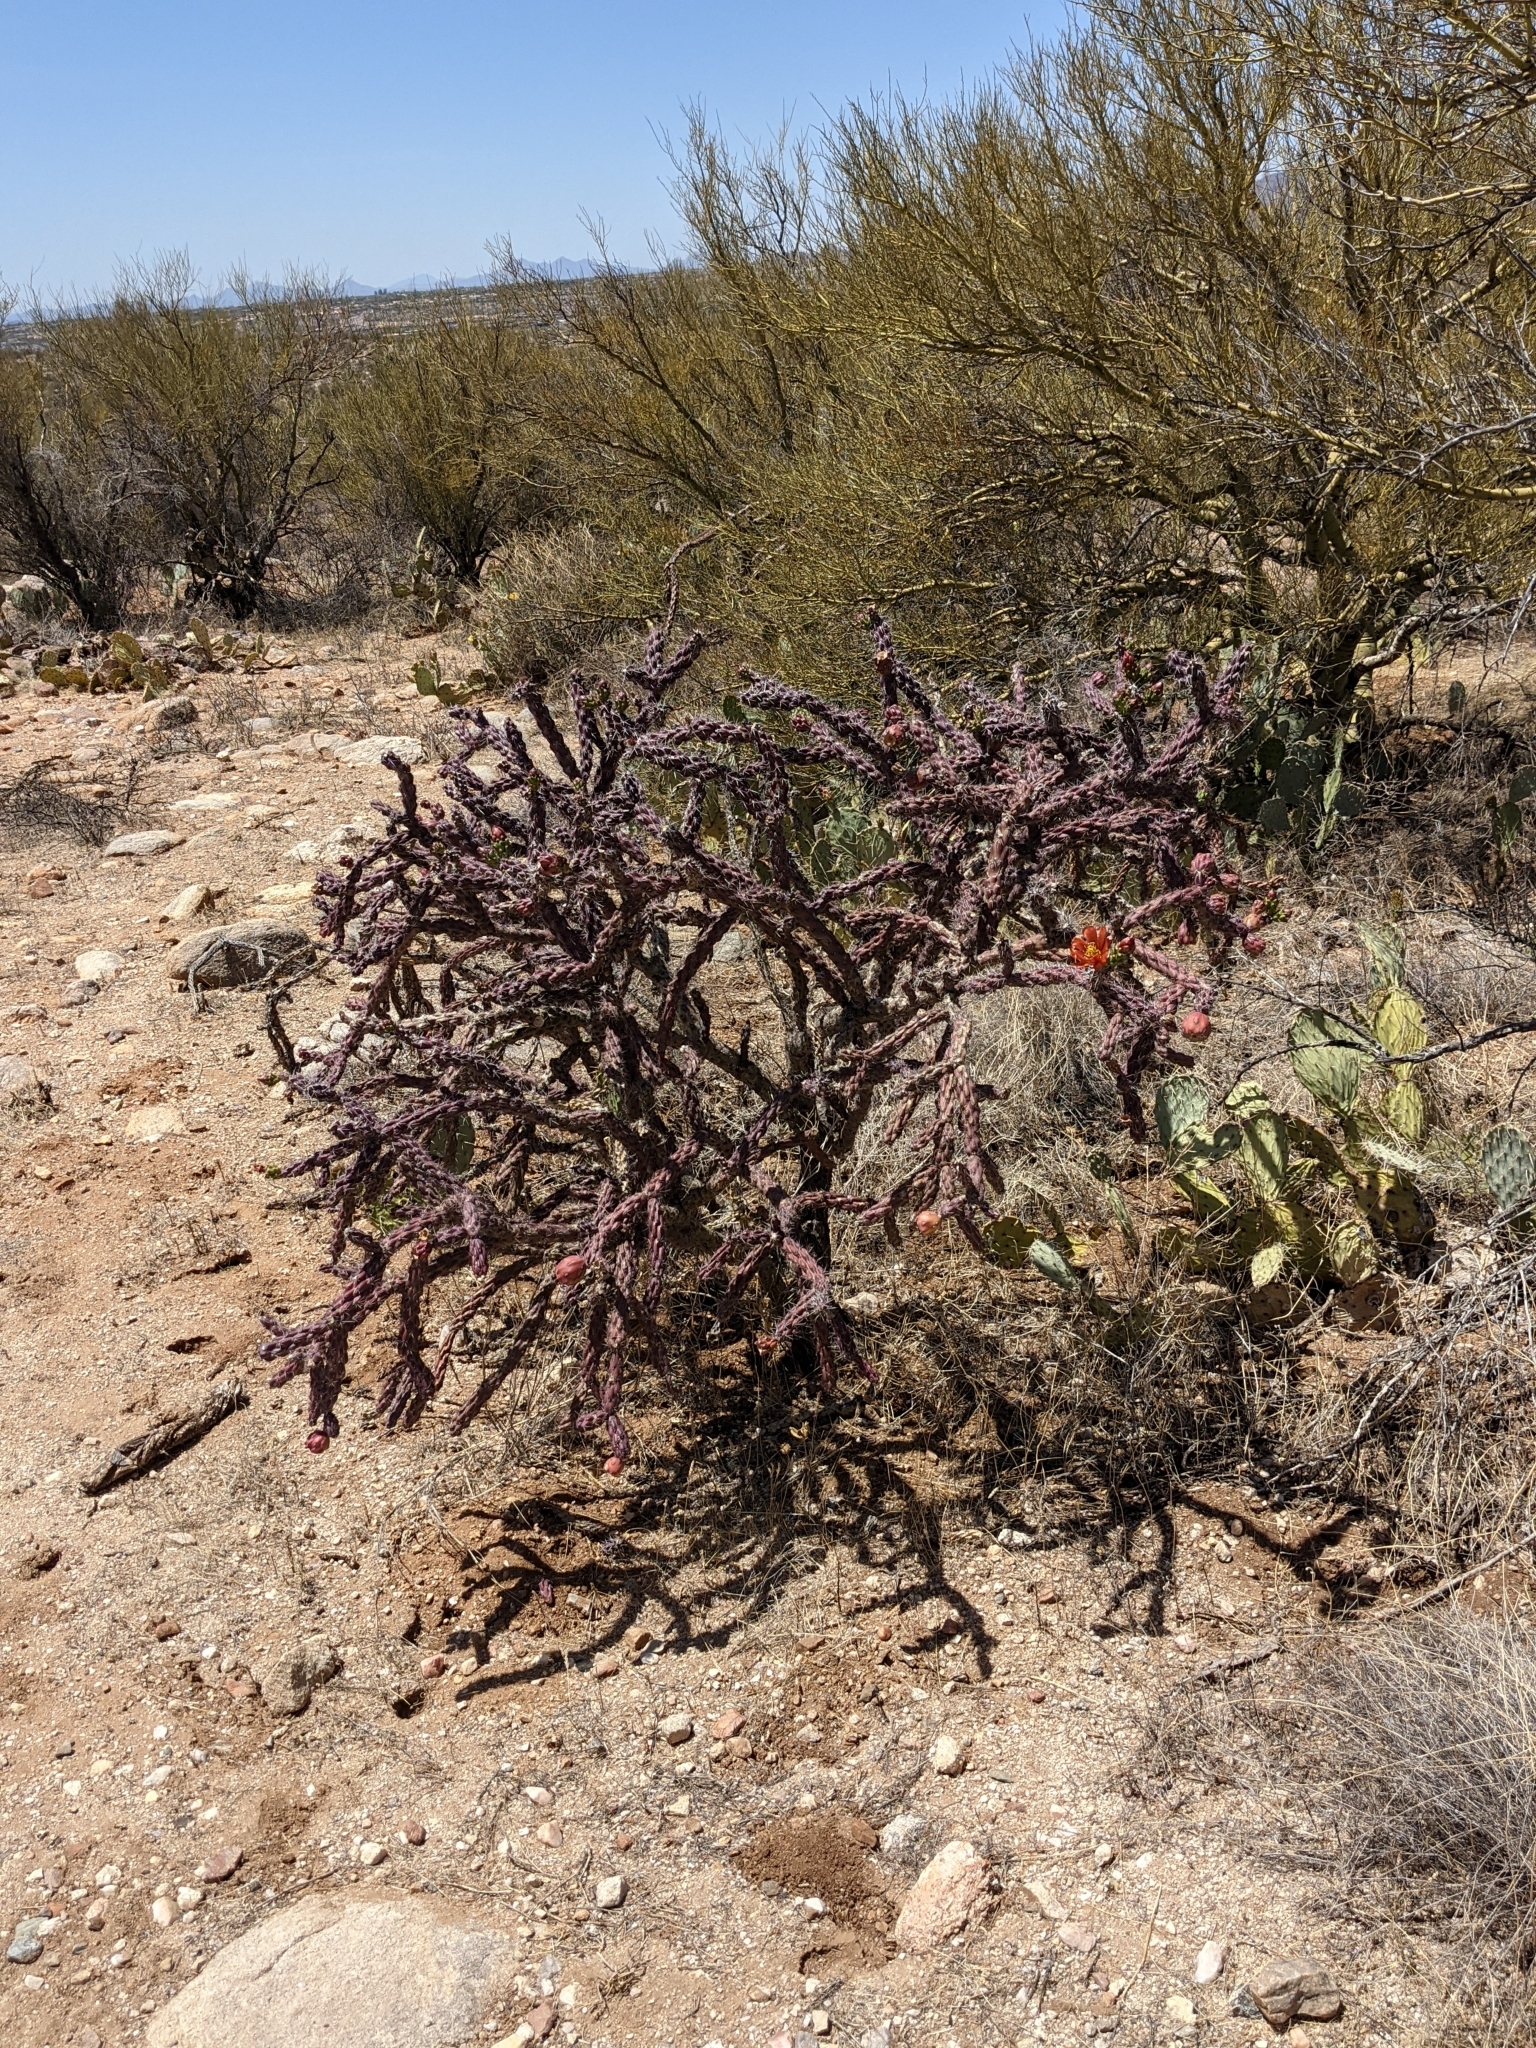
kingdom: Plantae
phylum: Tracheophyta
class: Magnoliopsida
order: Caryophyllales
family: Cactaceae
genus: Cylindropuntia
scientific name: Cylindropuntia thurberi
